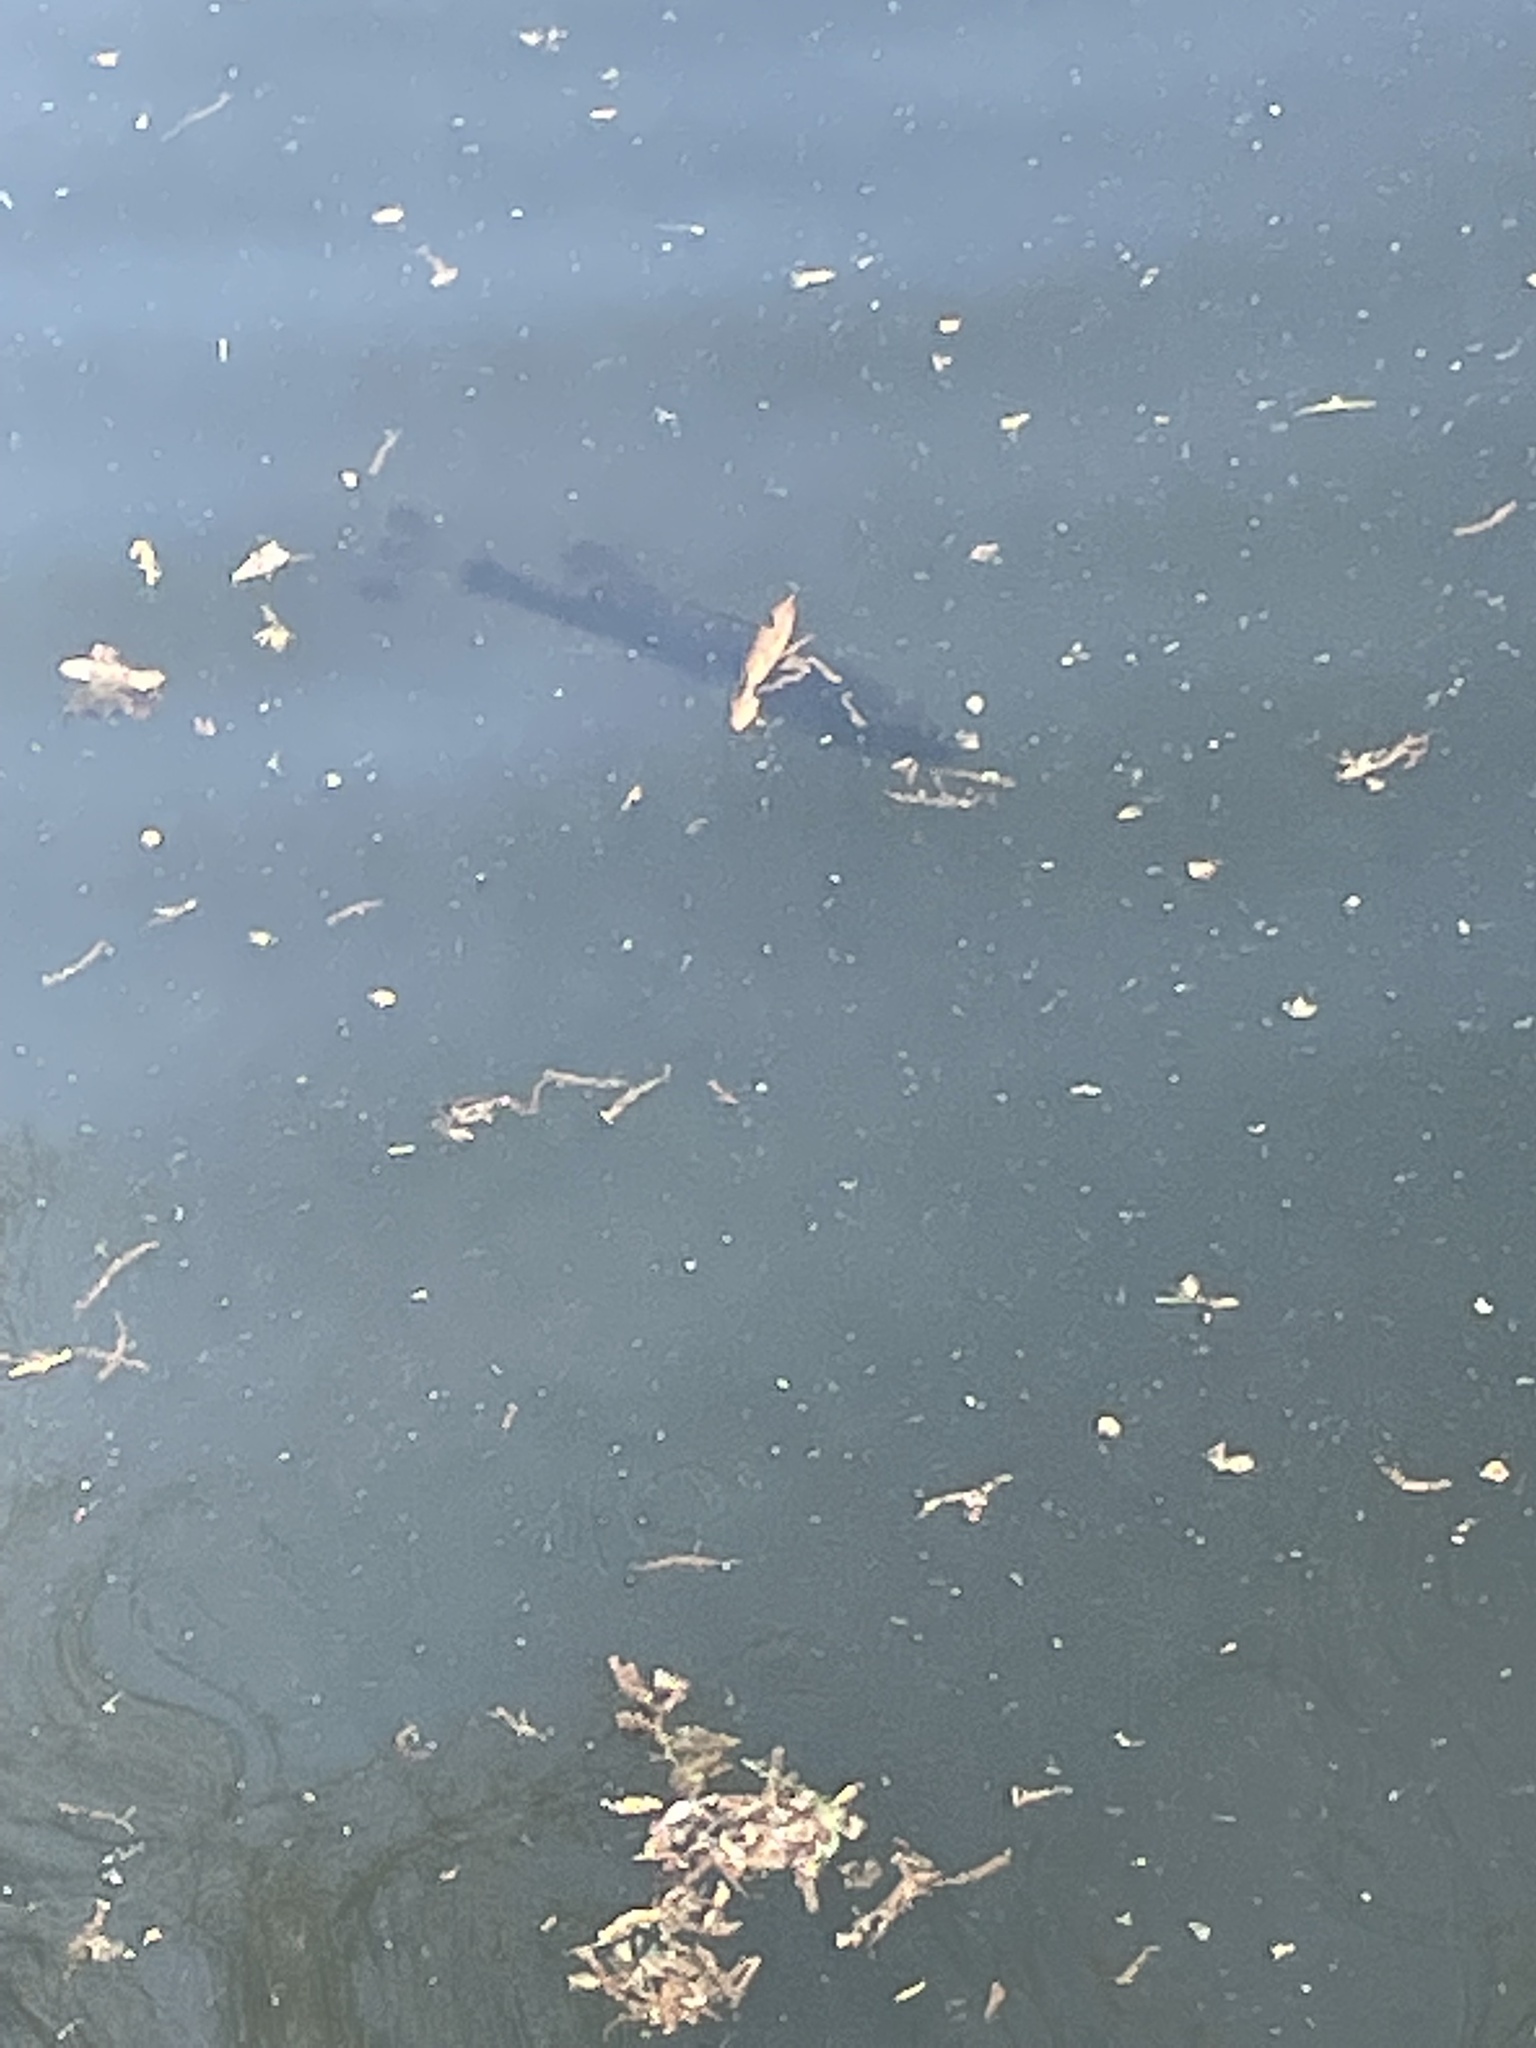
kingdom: Animalia
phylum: Chordata
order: Perciformes
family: Centrarchidae
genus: Micropterus
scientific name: Micropterus salmoides
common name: Largemouth bass
